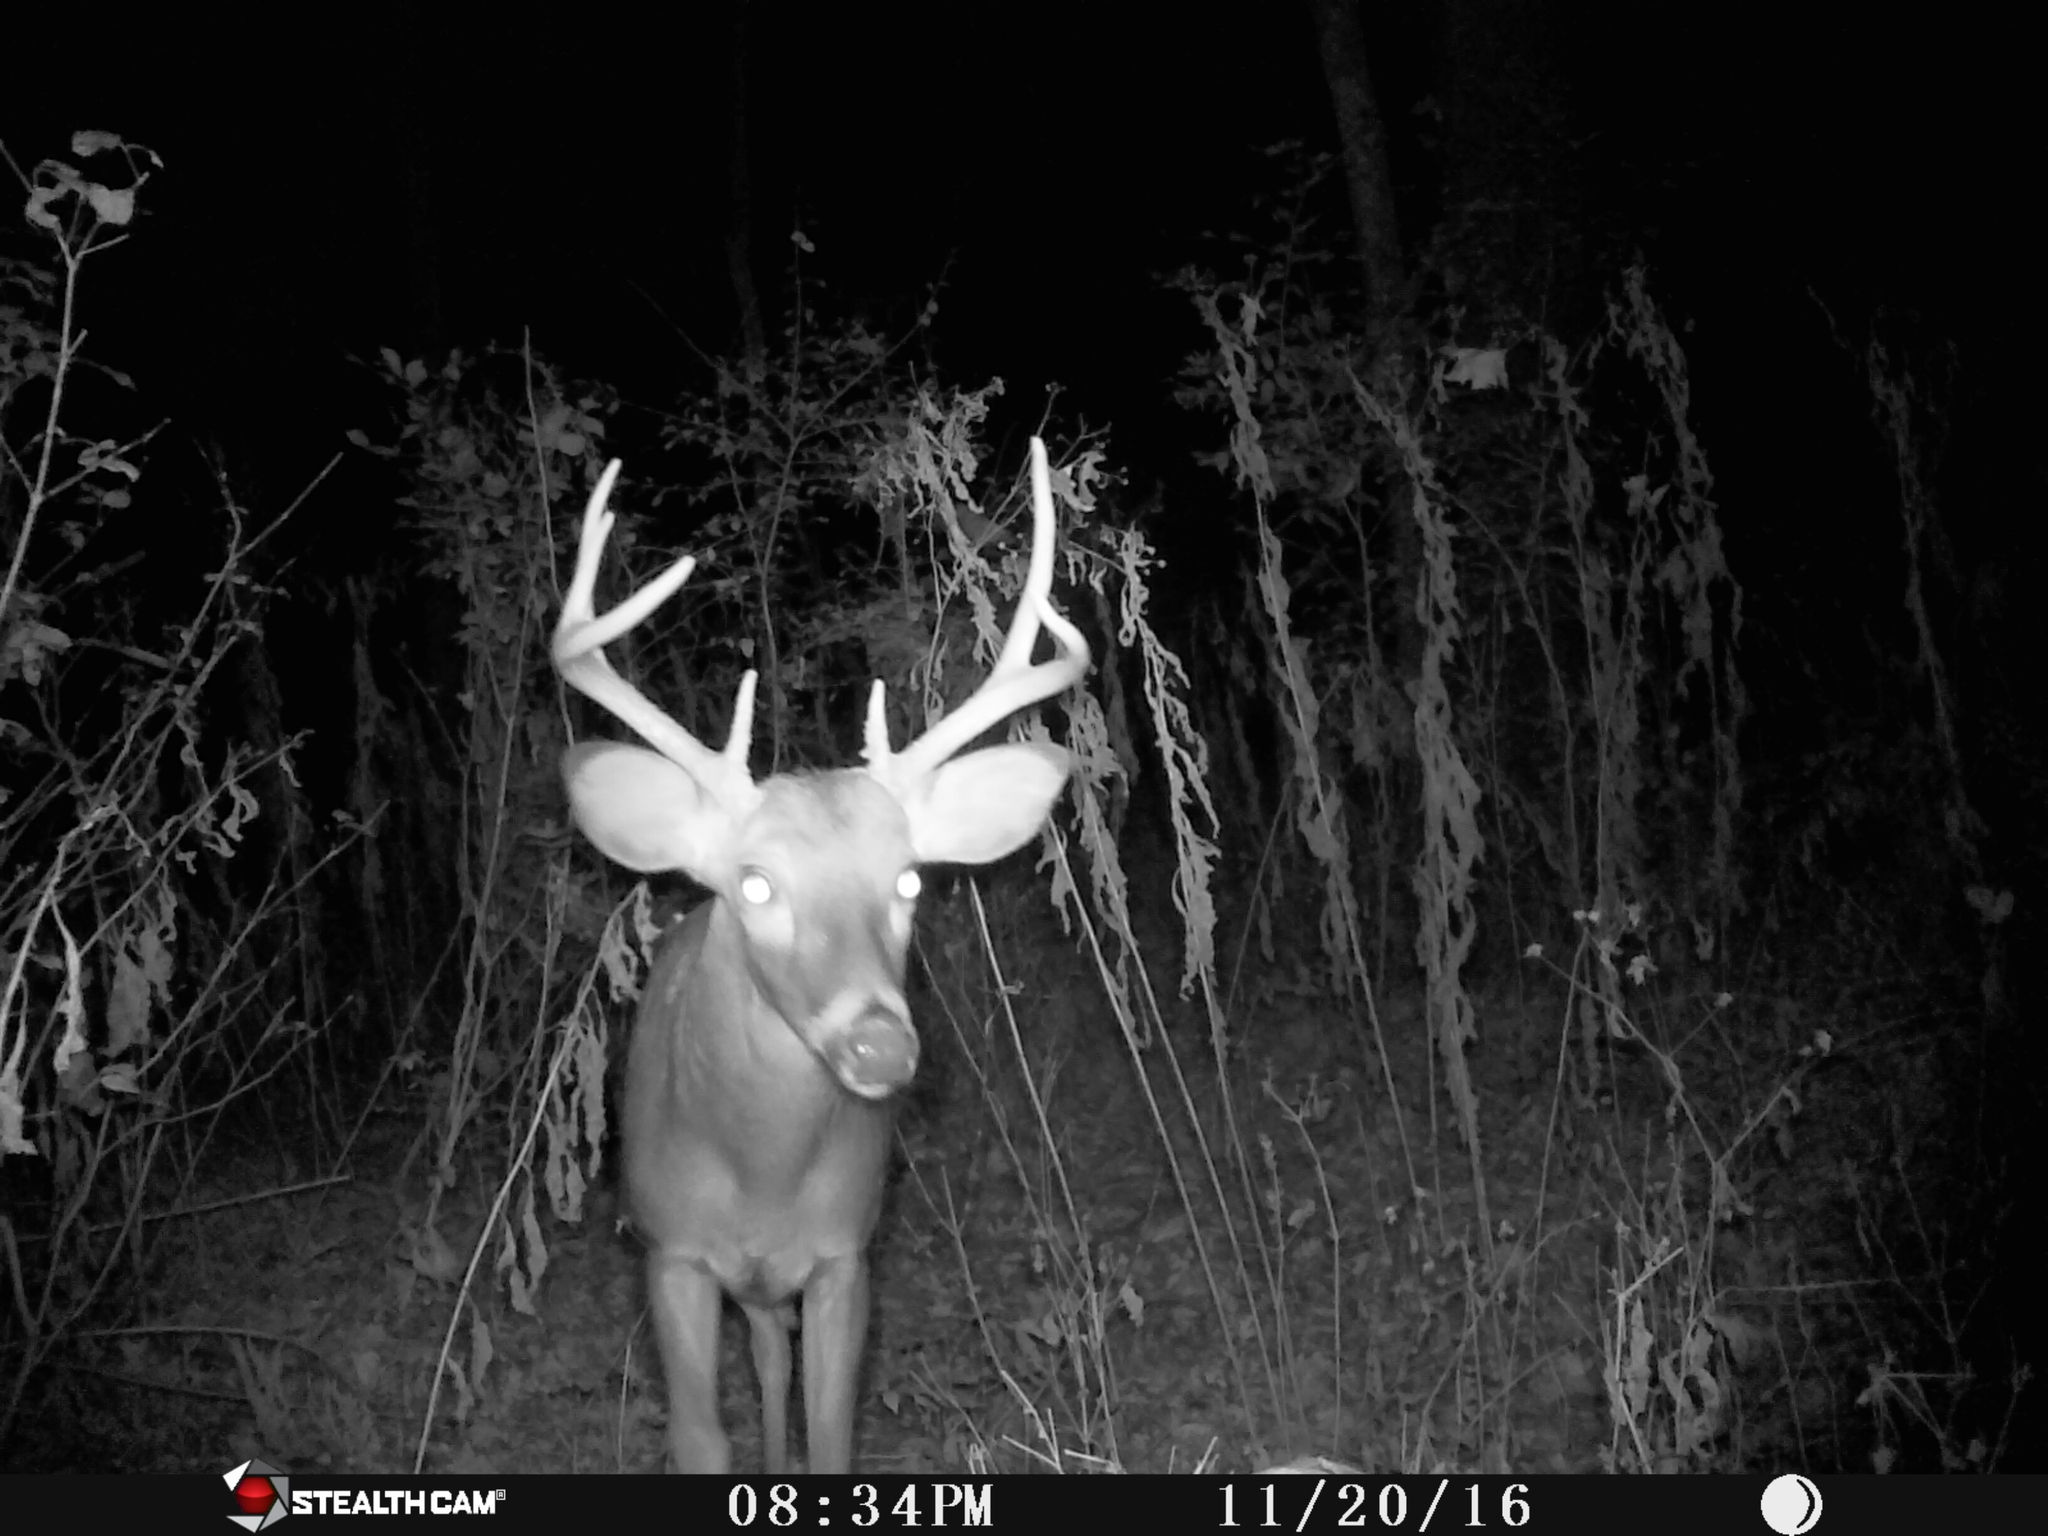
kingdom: Animalia
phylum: Chordata
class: Mammalia
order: Artiodactyla
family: Cervidae
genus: Odocoileus
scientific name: Odocoileus virginianus
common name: White-tailed deer
